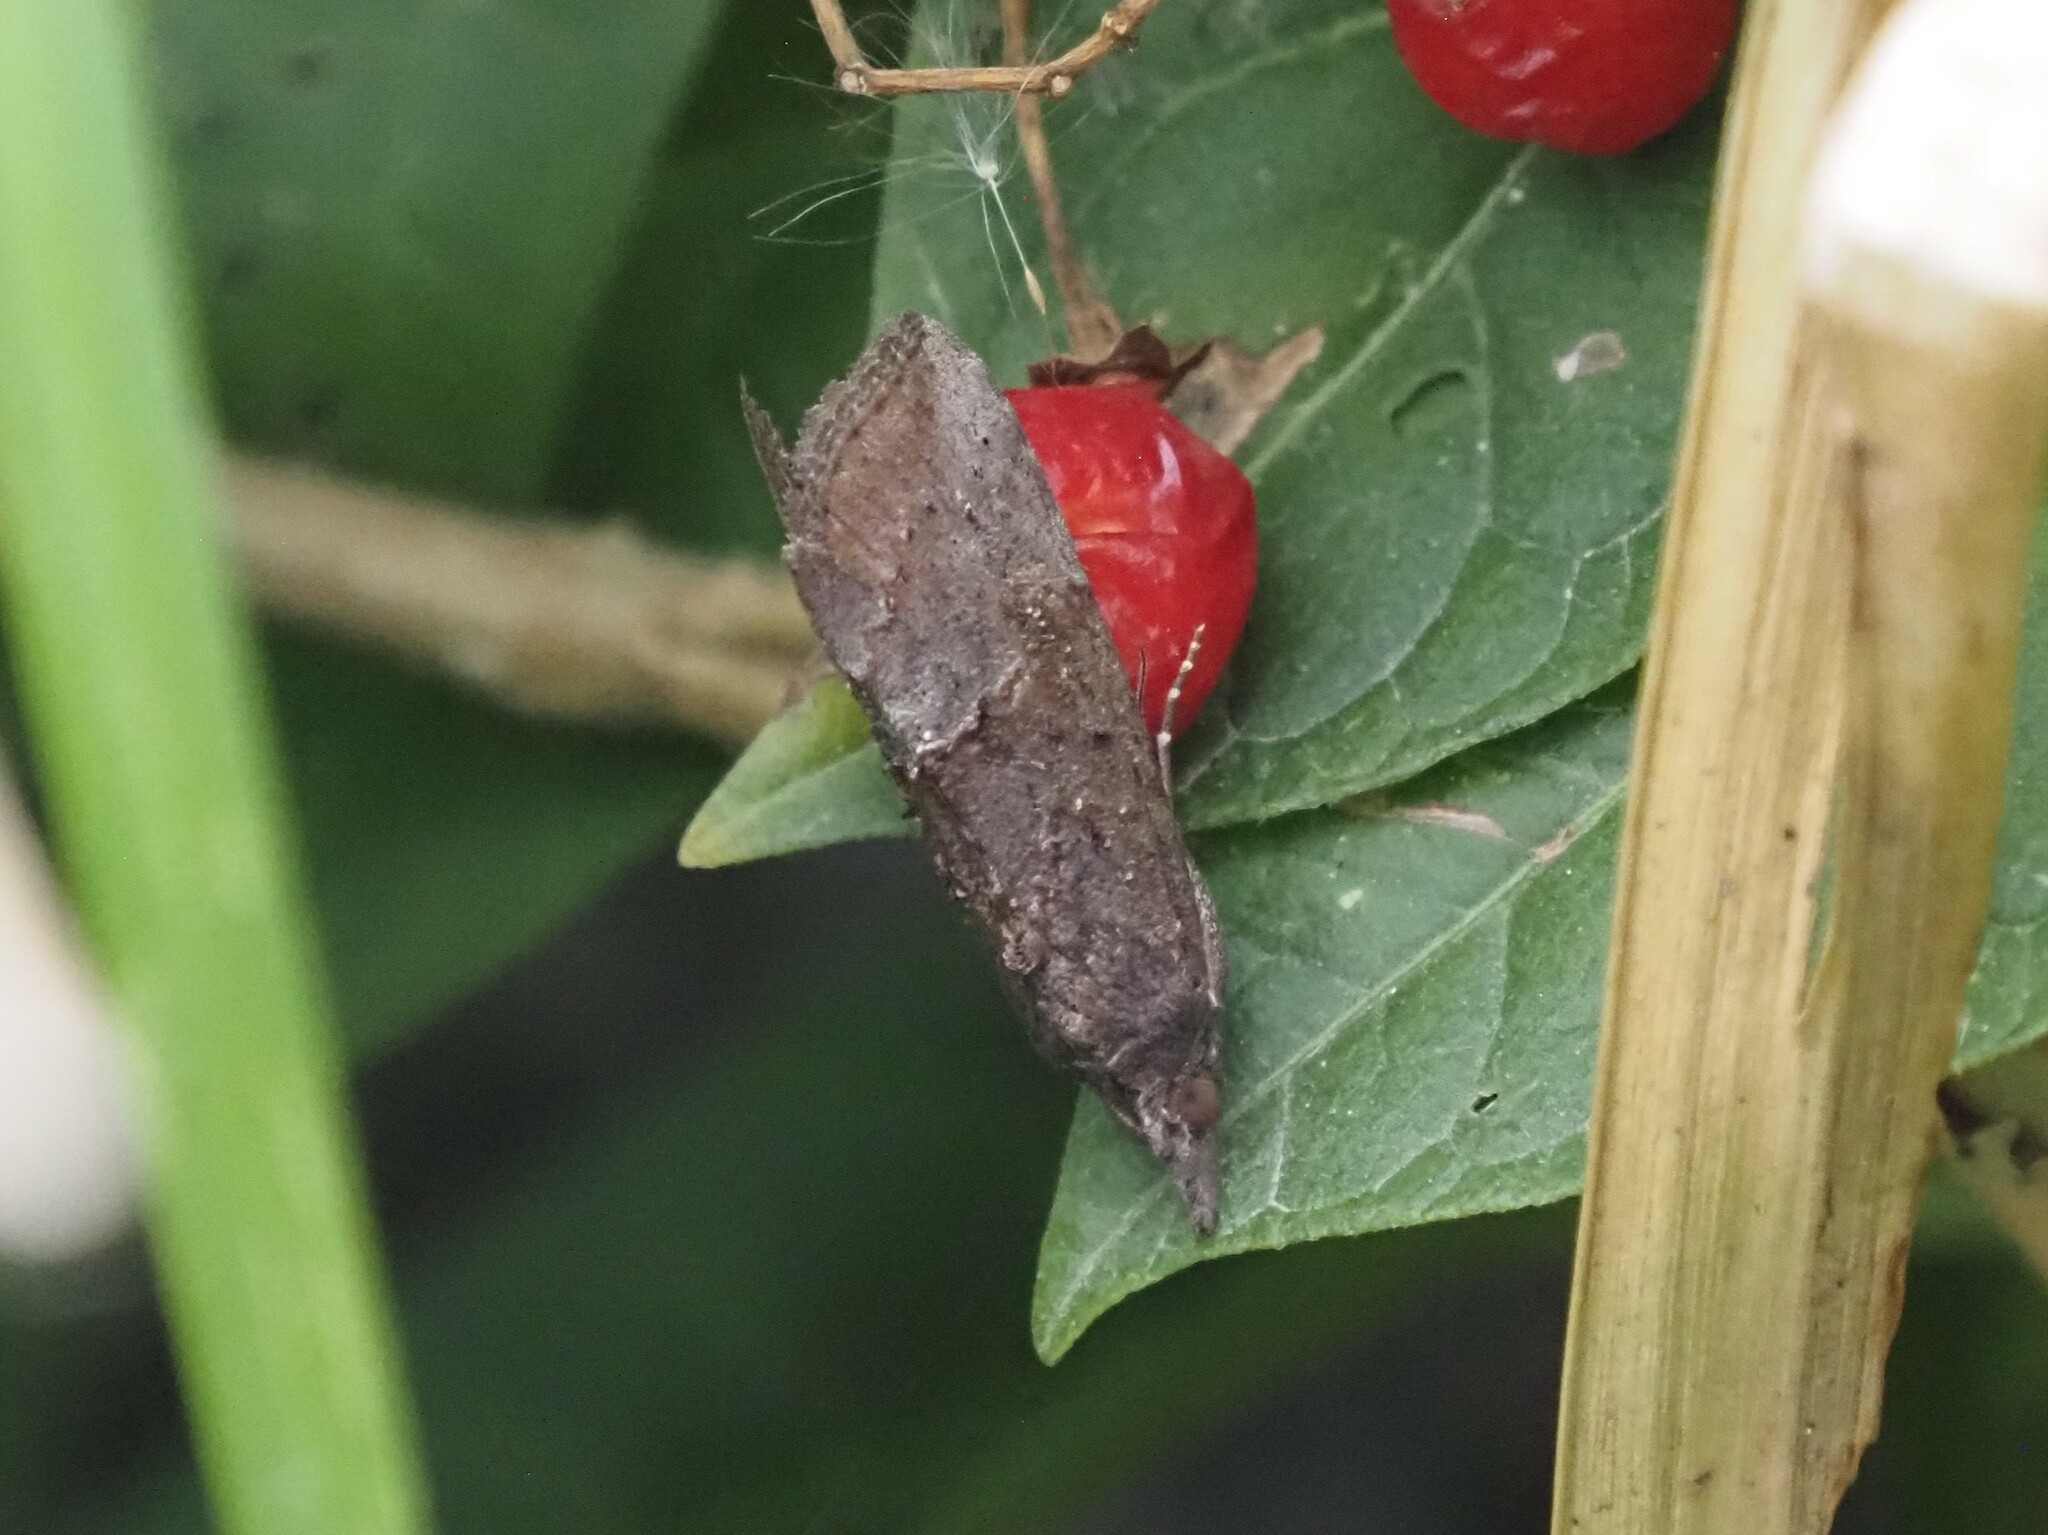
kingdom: Animalia
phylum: Arthropoda
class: Insecta
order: Lepidoptera
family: Erebidae
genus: Hypena
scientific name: Hypena scabra
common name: Green cloverworm
